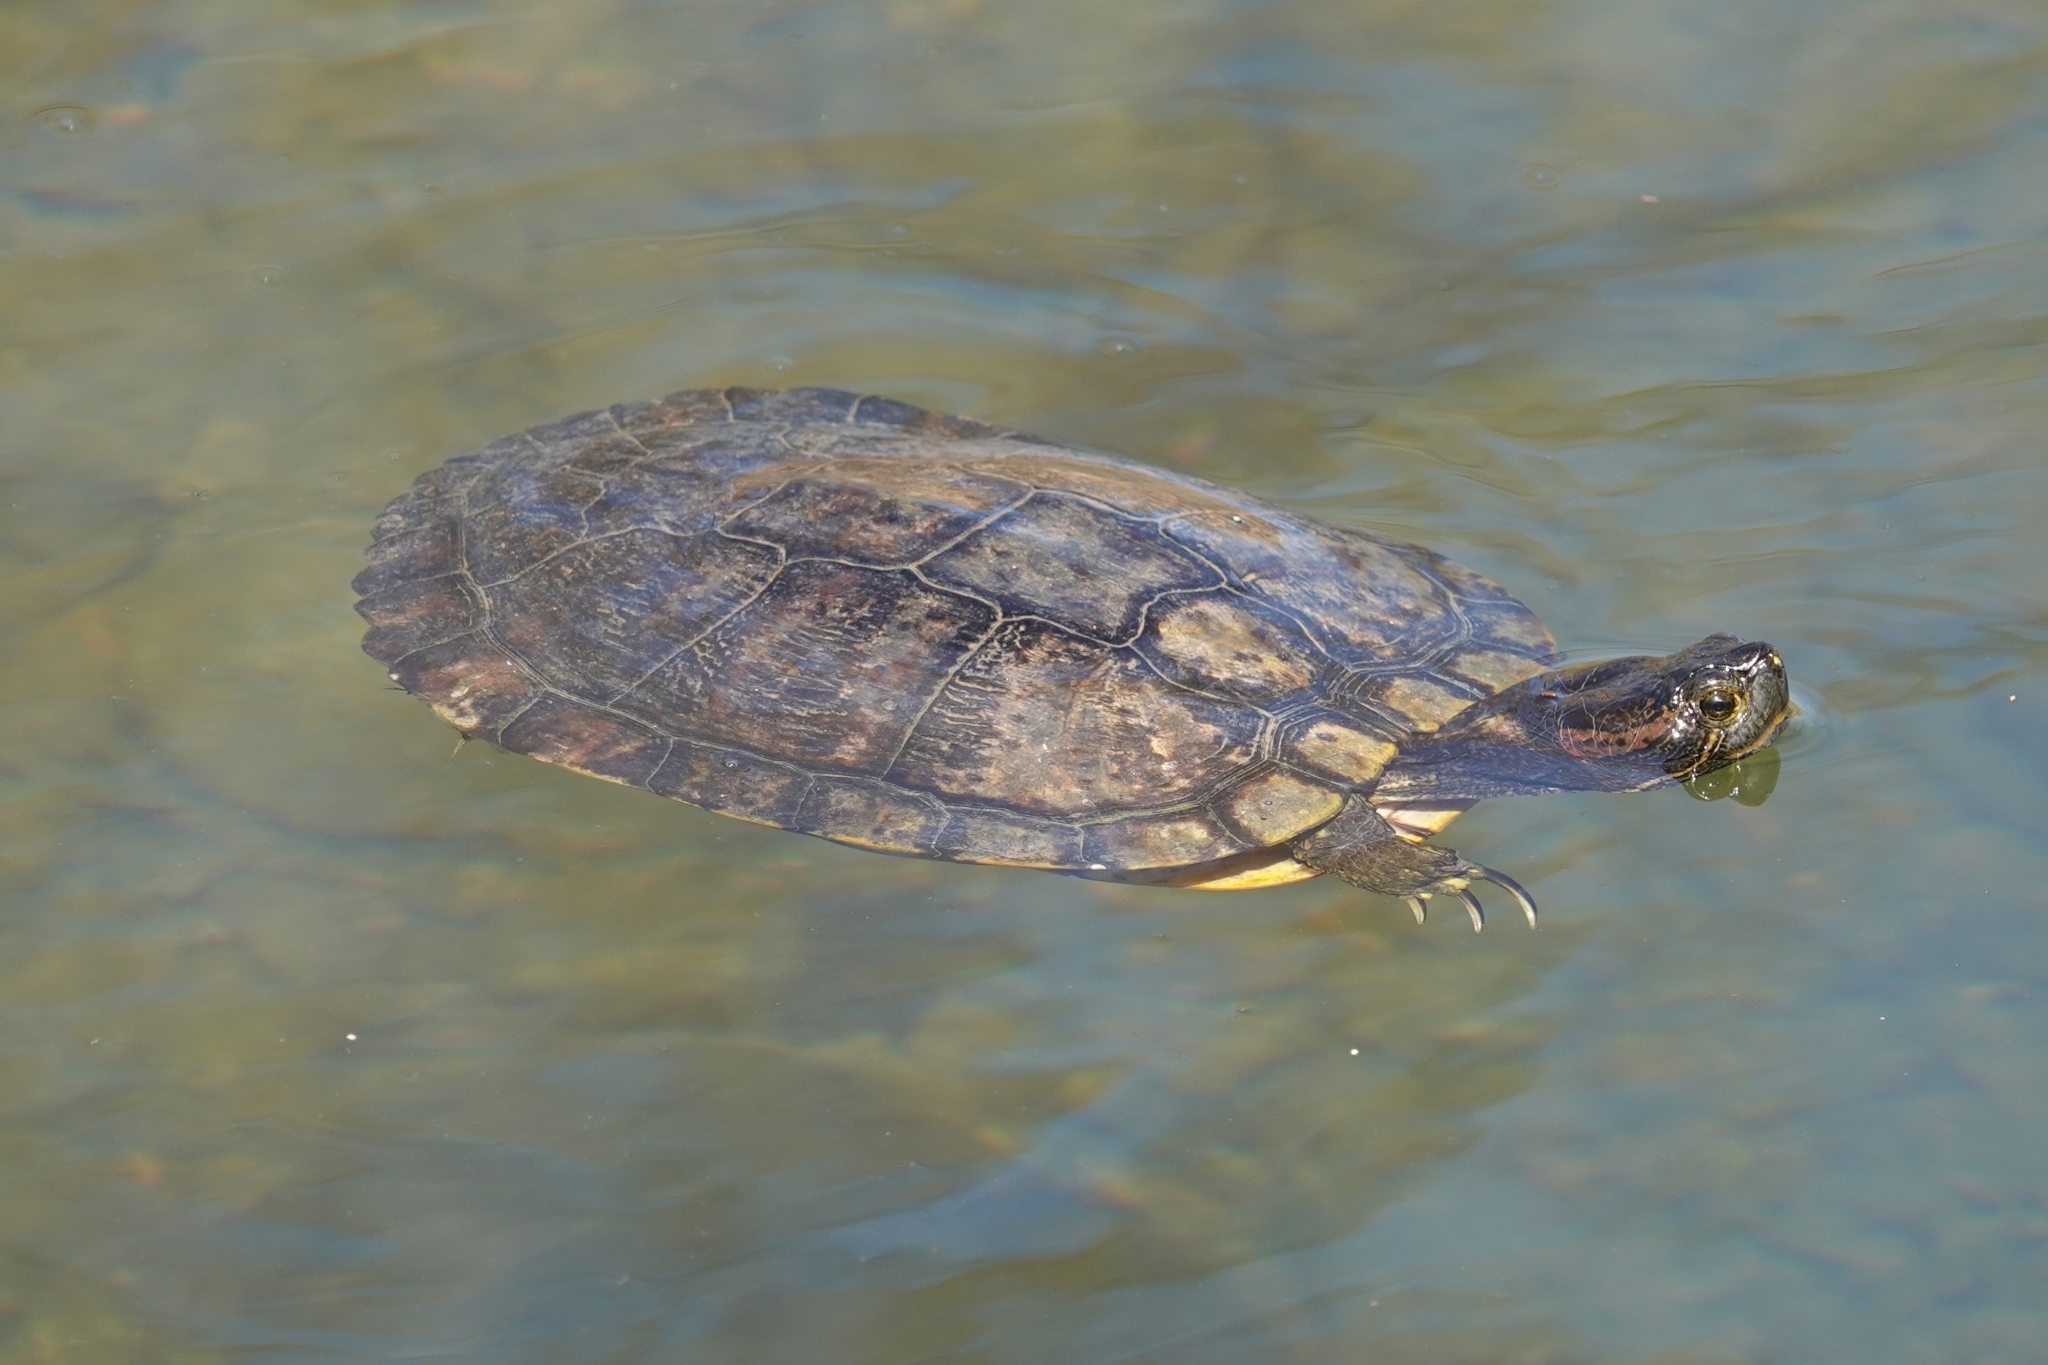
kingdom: Animalia
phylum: Chordata
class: Testudines
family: Emydidae
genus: Trachemys
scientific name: Trachemys scripta
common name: Slider
